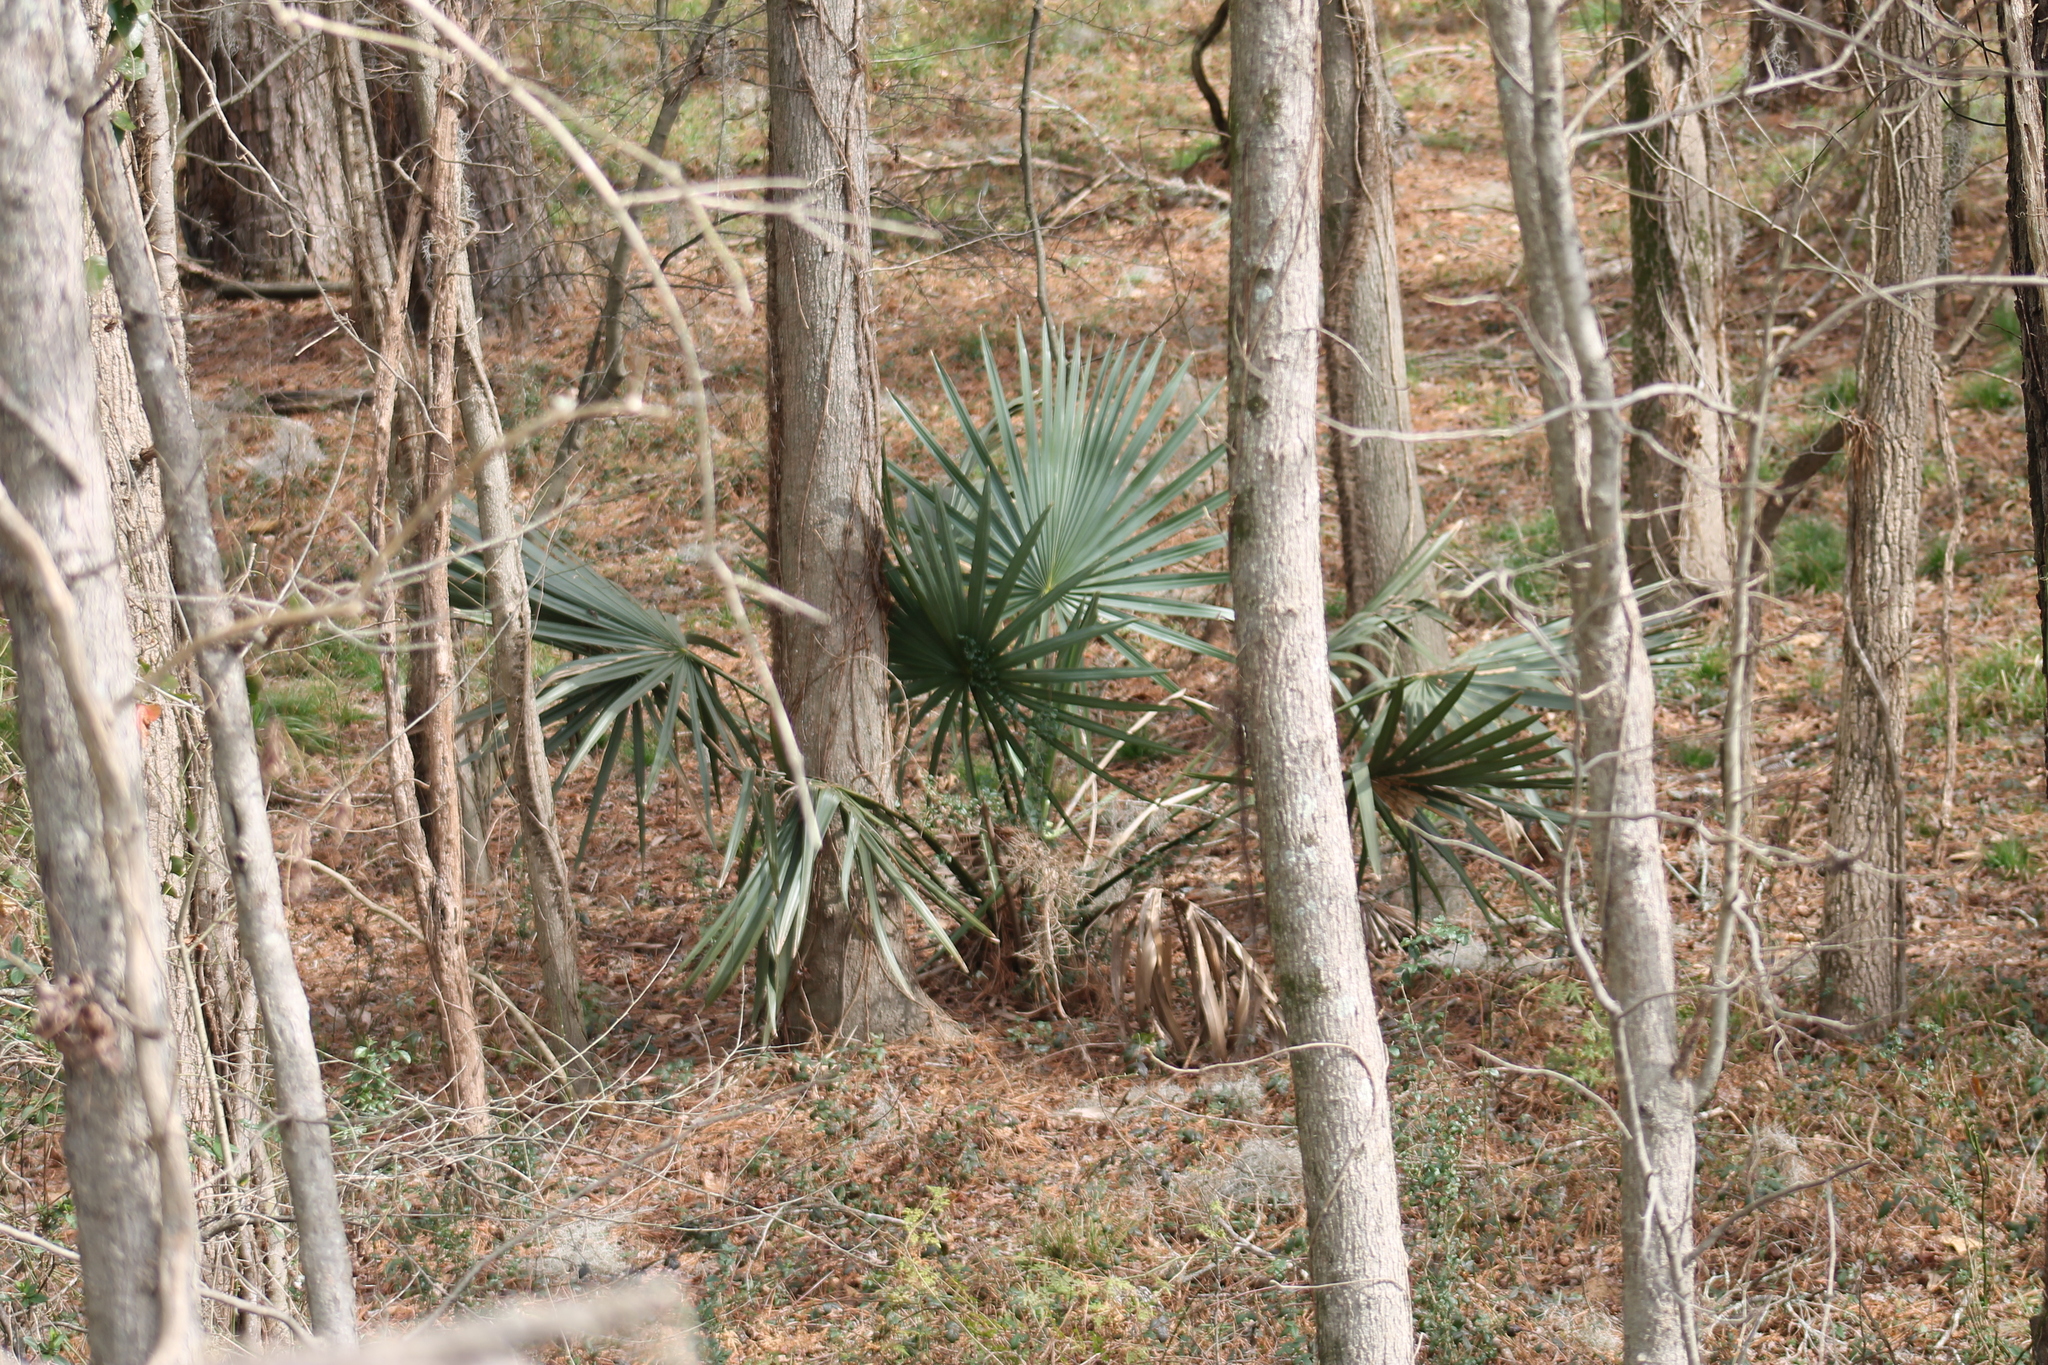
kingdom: Plantae
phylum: Tracheophyta
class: Liliopsida
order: Arecales
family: Arecaceae
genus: Sabal
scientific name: Sabal minor
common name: Dwarf palmetto
